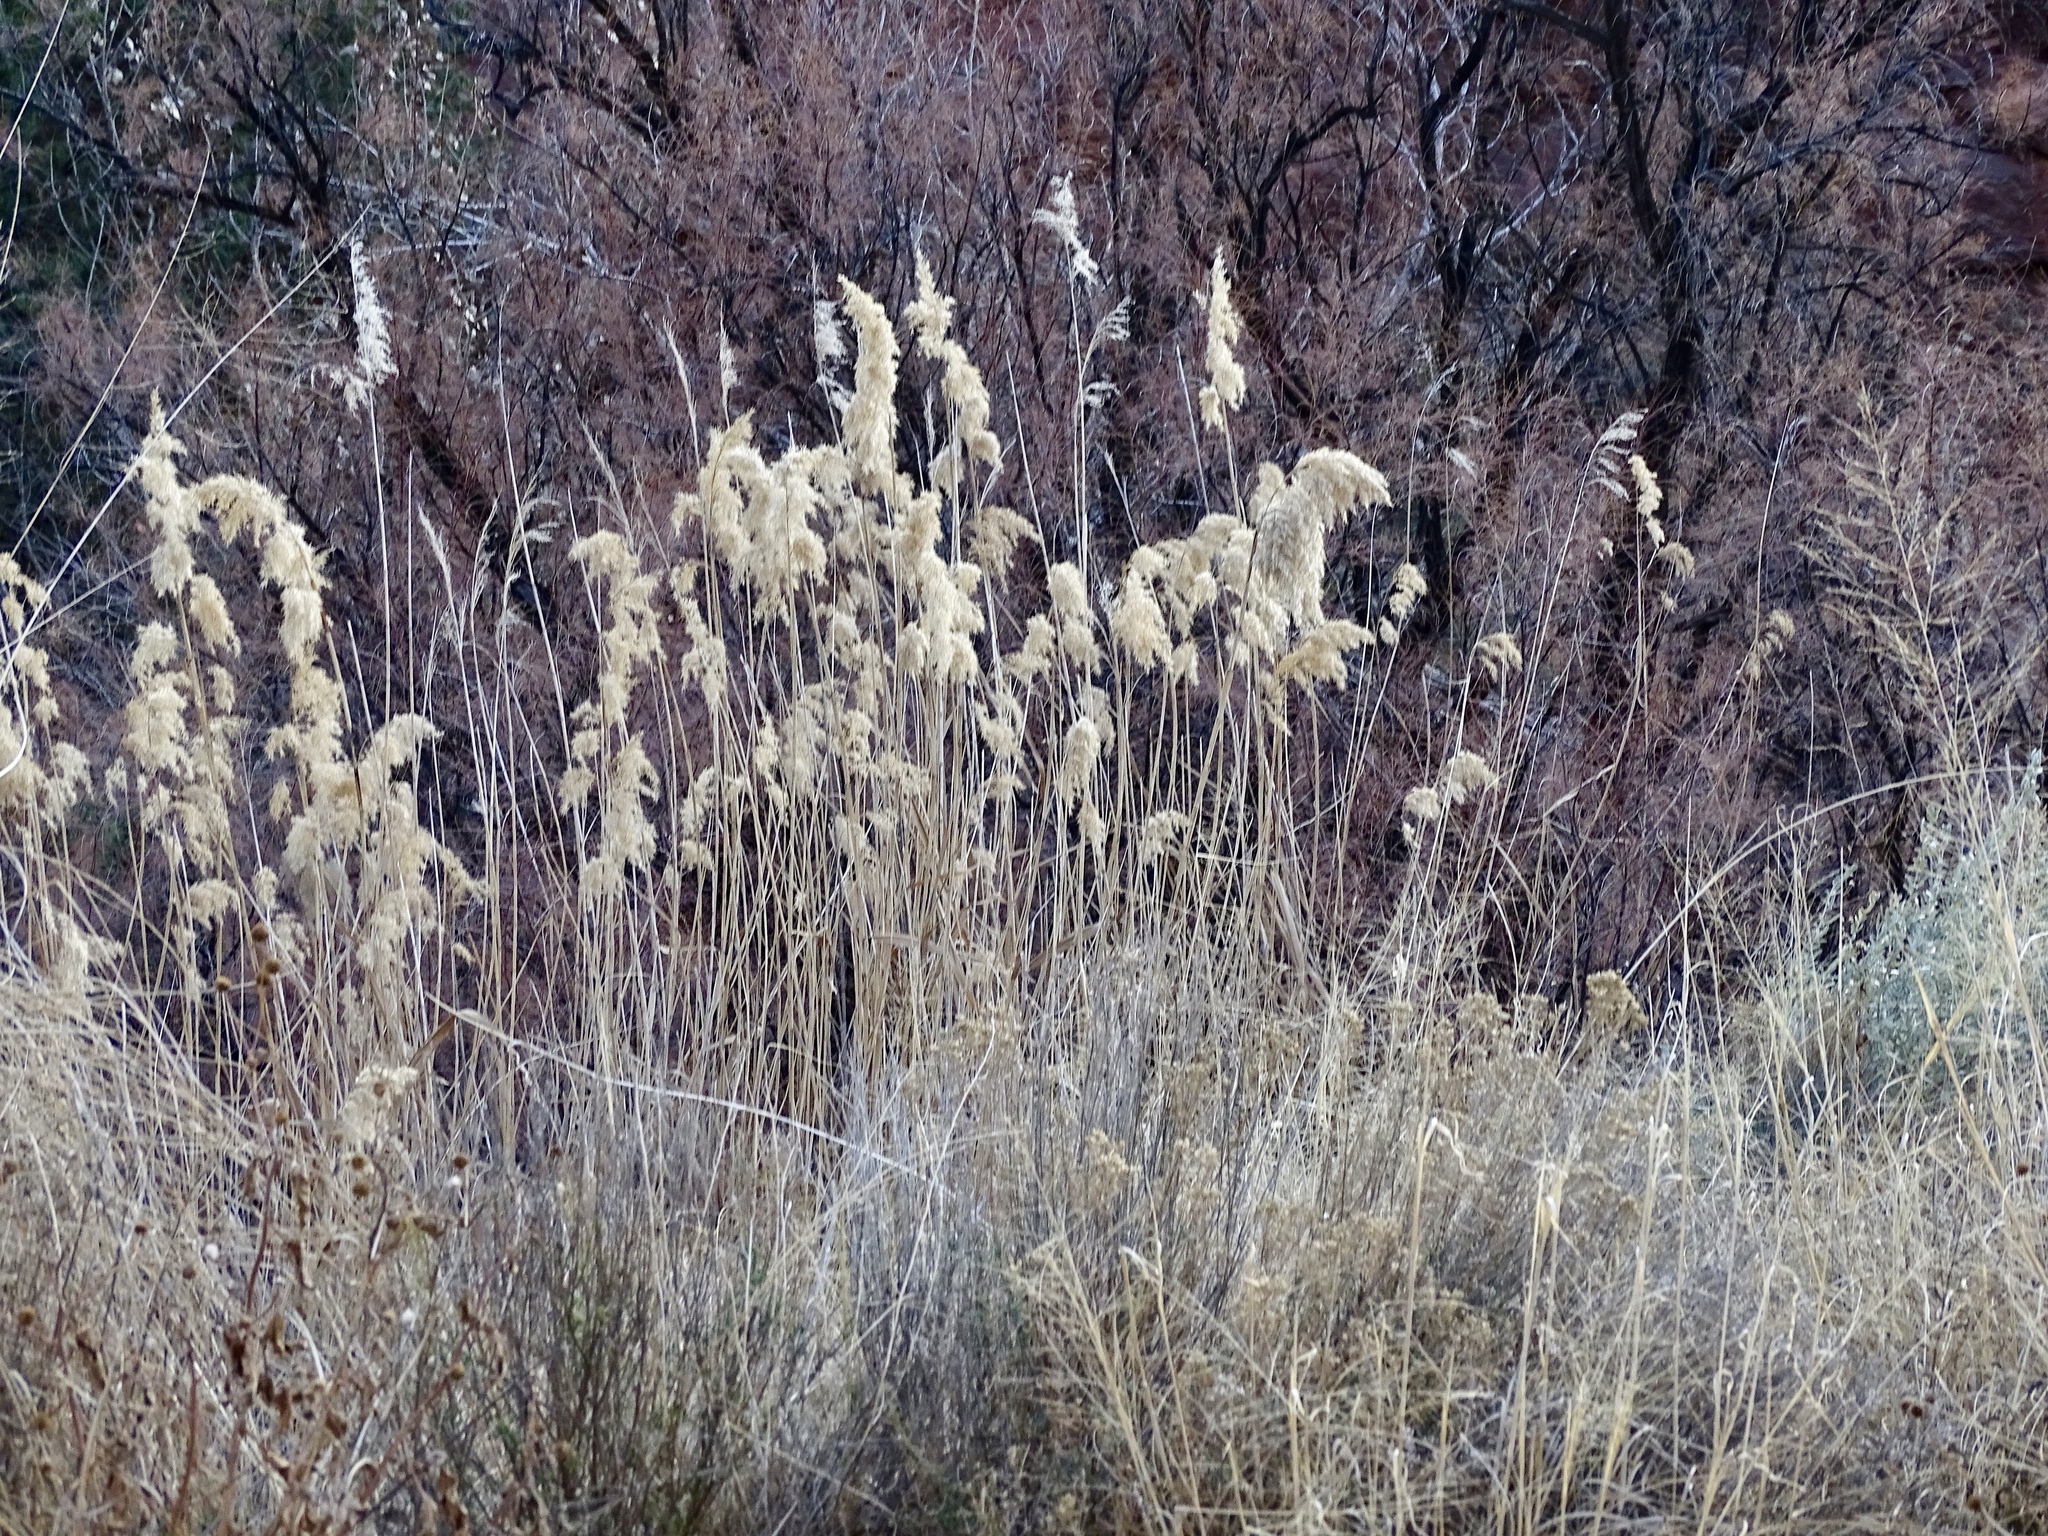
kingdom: Plantae
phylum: Tracheophyta
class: Liliopsida
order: Poales
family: Poaceae
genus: Phragmites
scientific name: Phragmites australis
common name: Common reed
